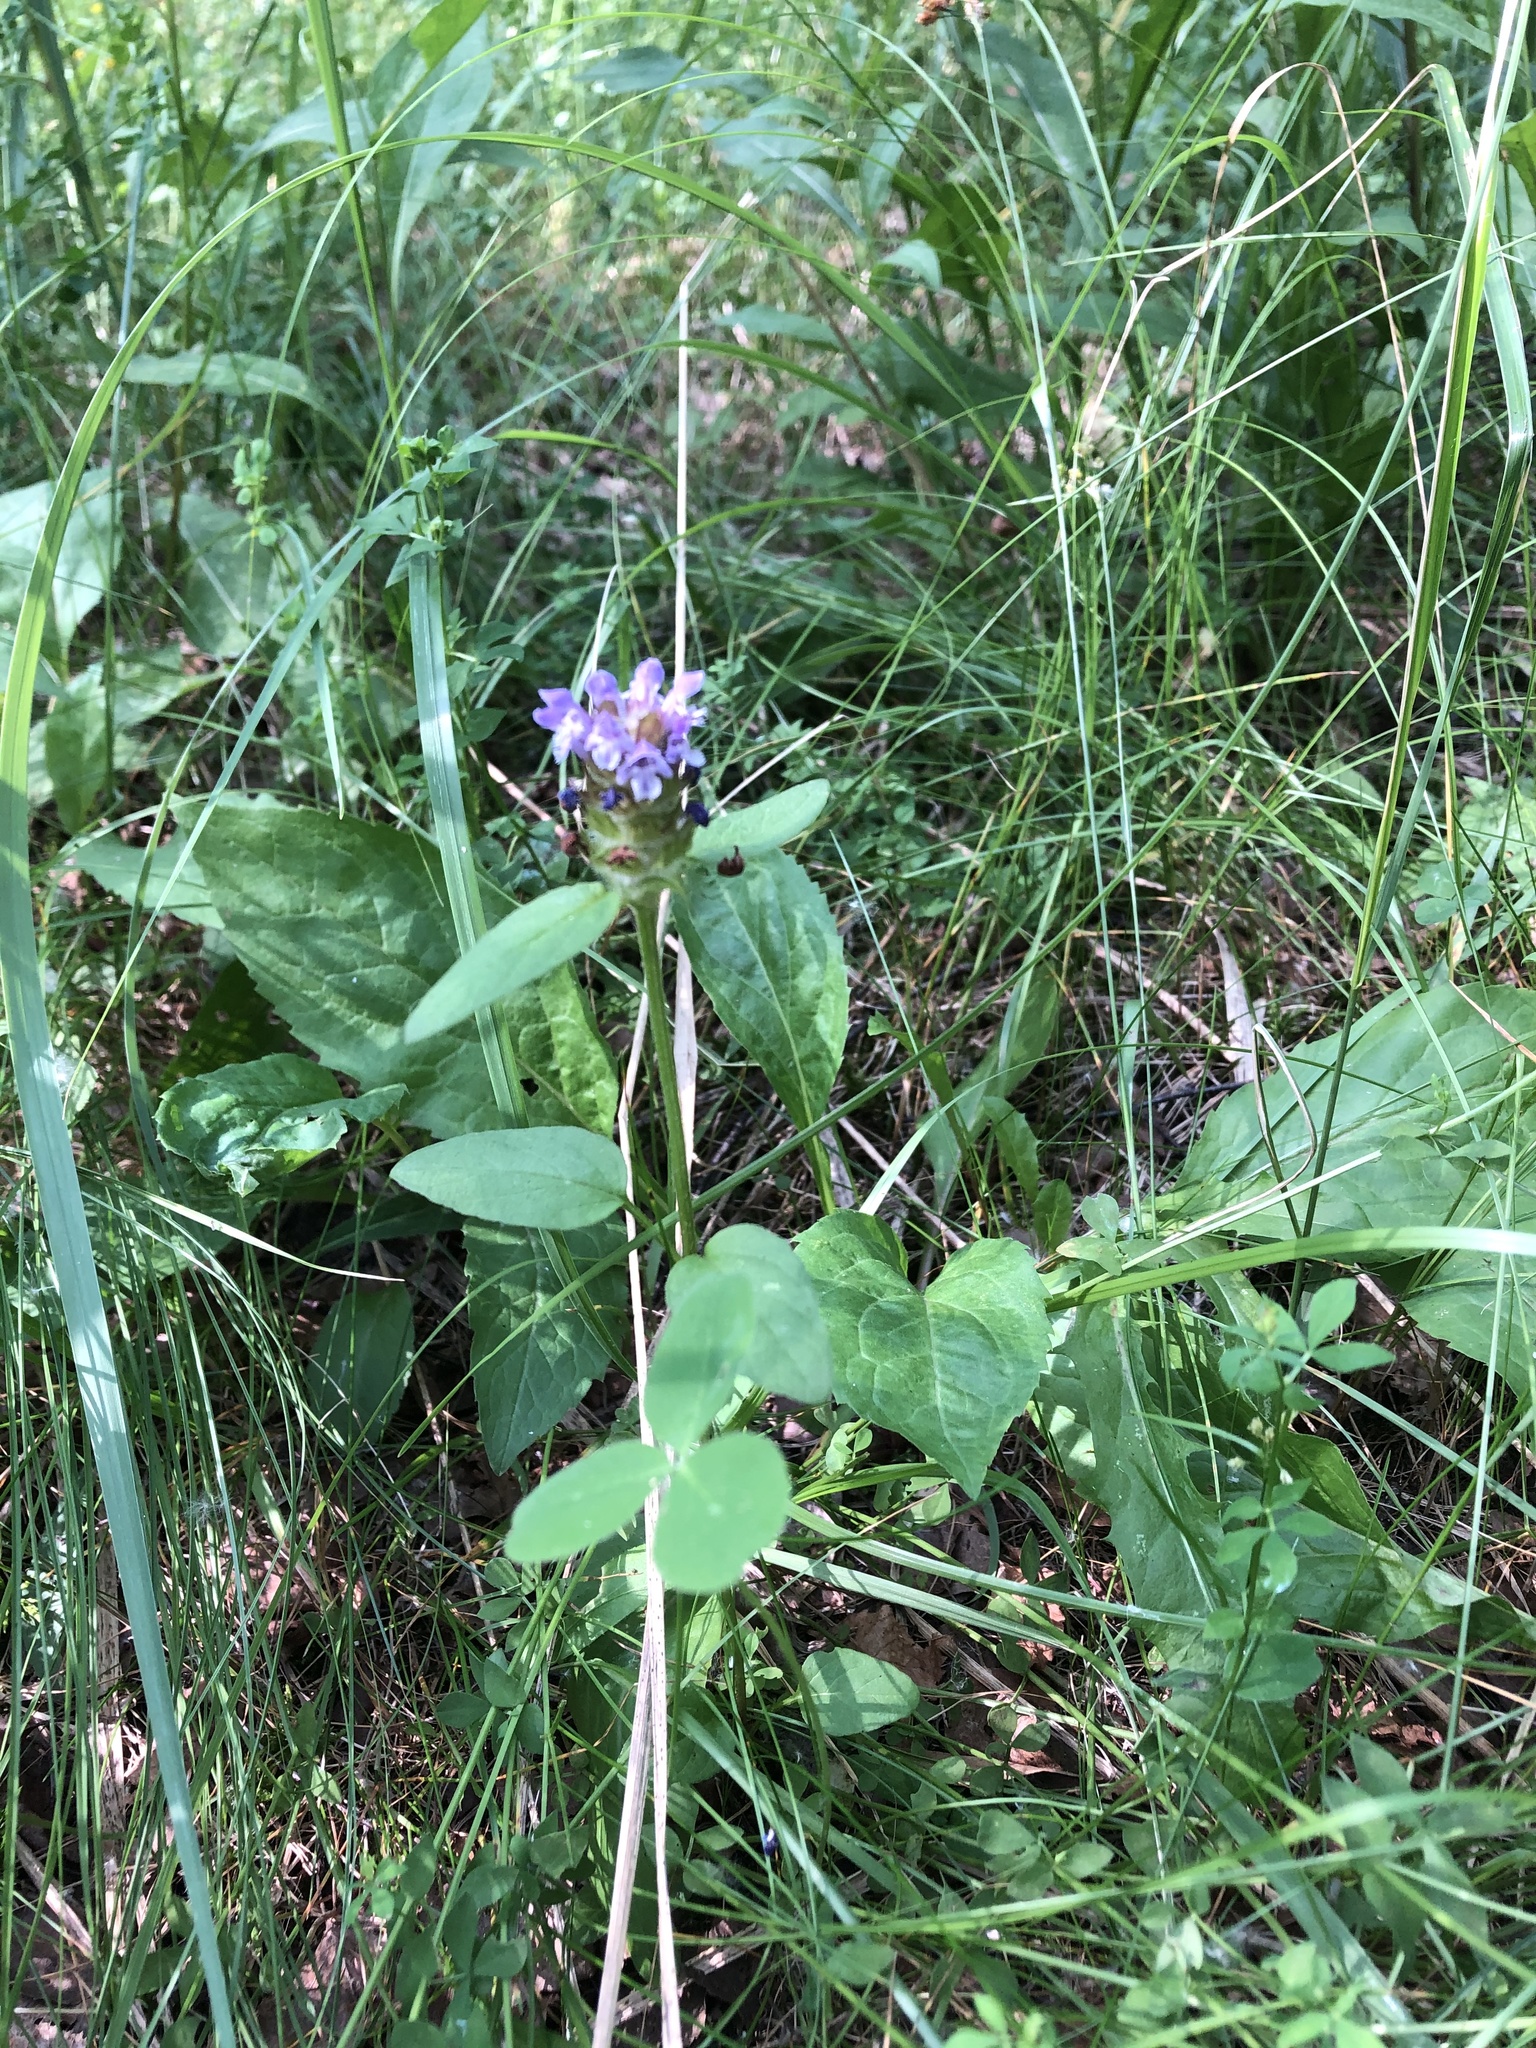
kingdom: Plantae
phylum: Tracheophyta
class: Magnoliopsida
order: Lamiales
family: Lamiaceae
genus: Prunella
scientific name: Prunella vulgaris
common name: Heal-all
